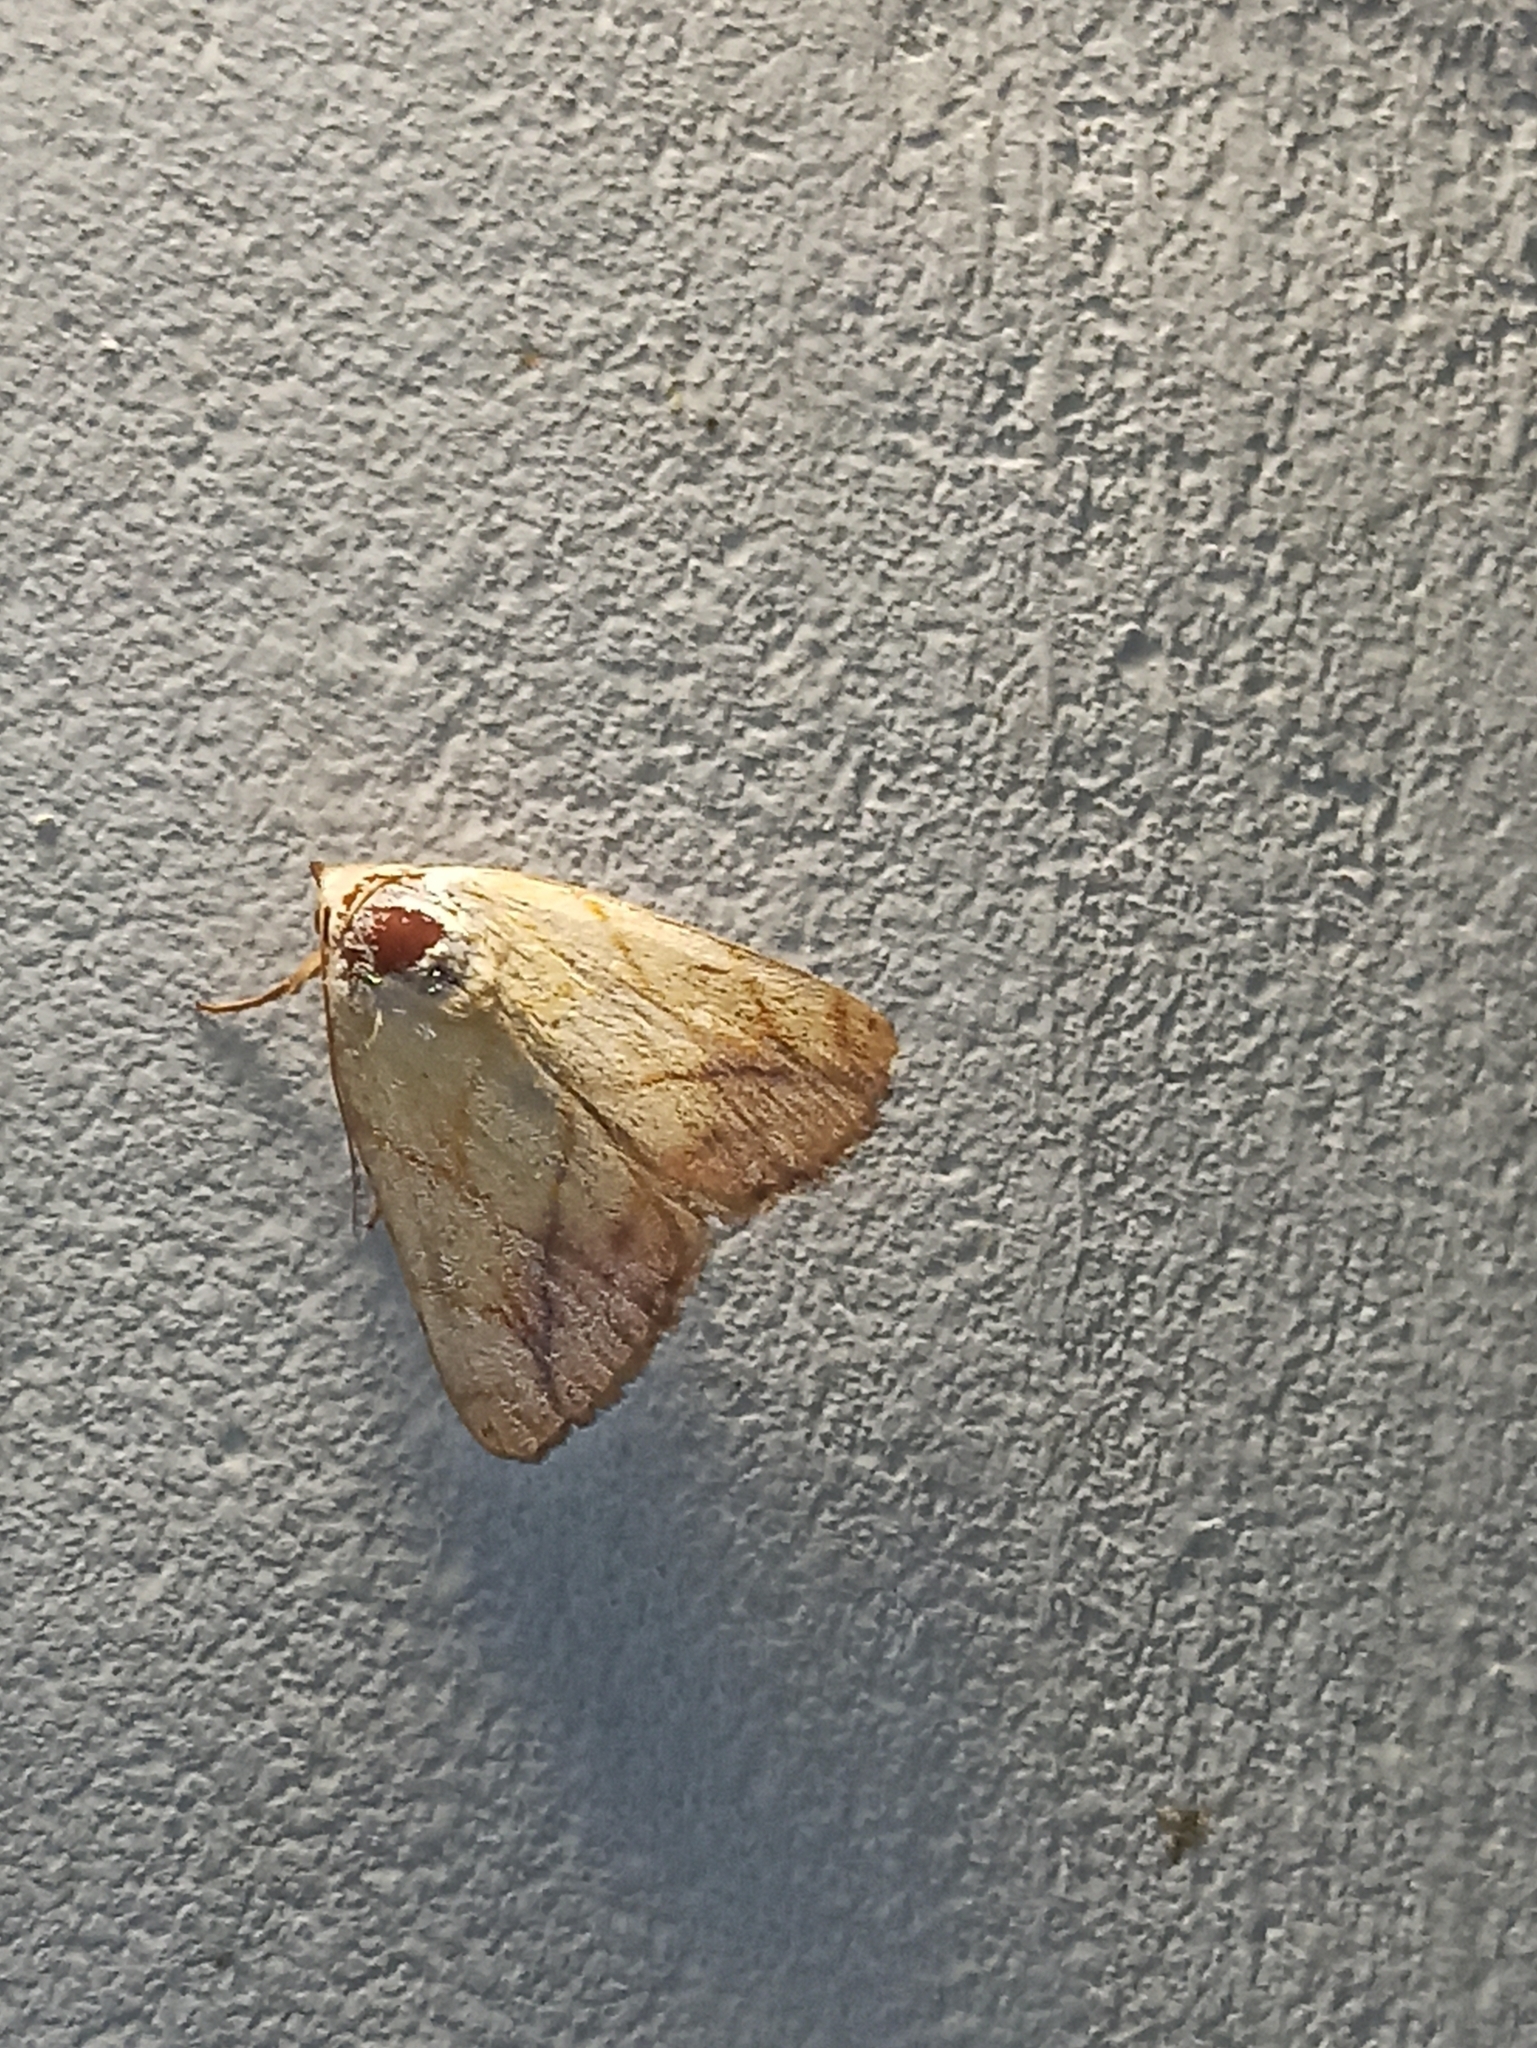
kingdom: Animalia
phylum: Arthropoda
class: Insecta
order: Lepidoptera
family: Nolidae
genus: Xanthodes
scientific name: Xanthodes transversa
